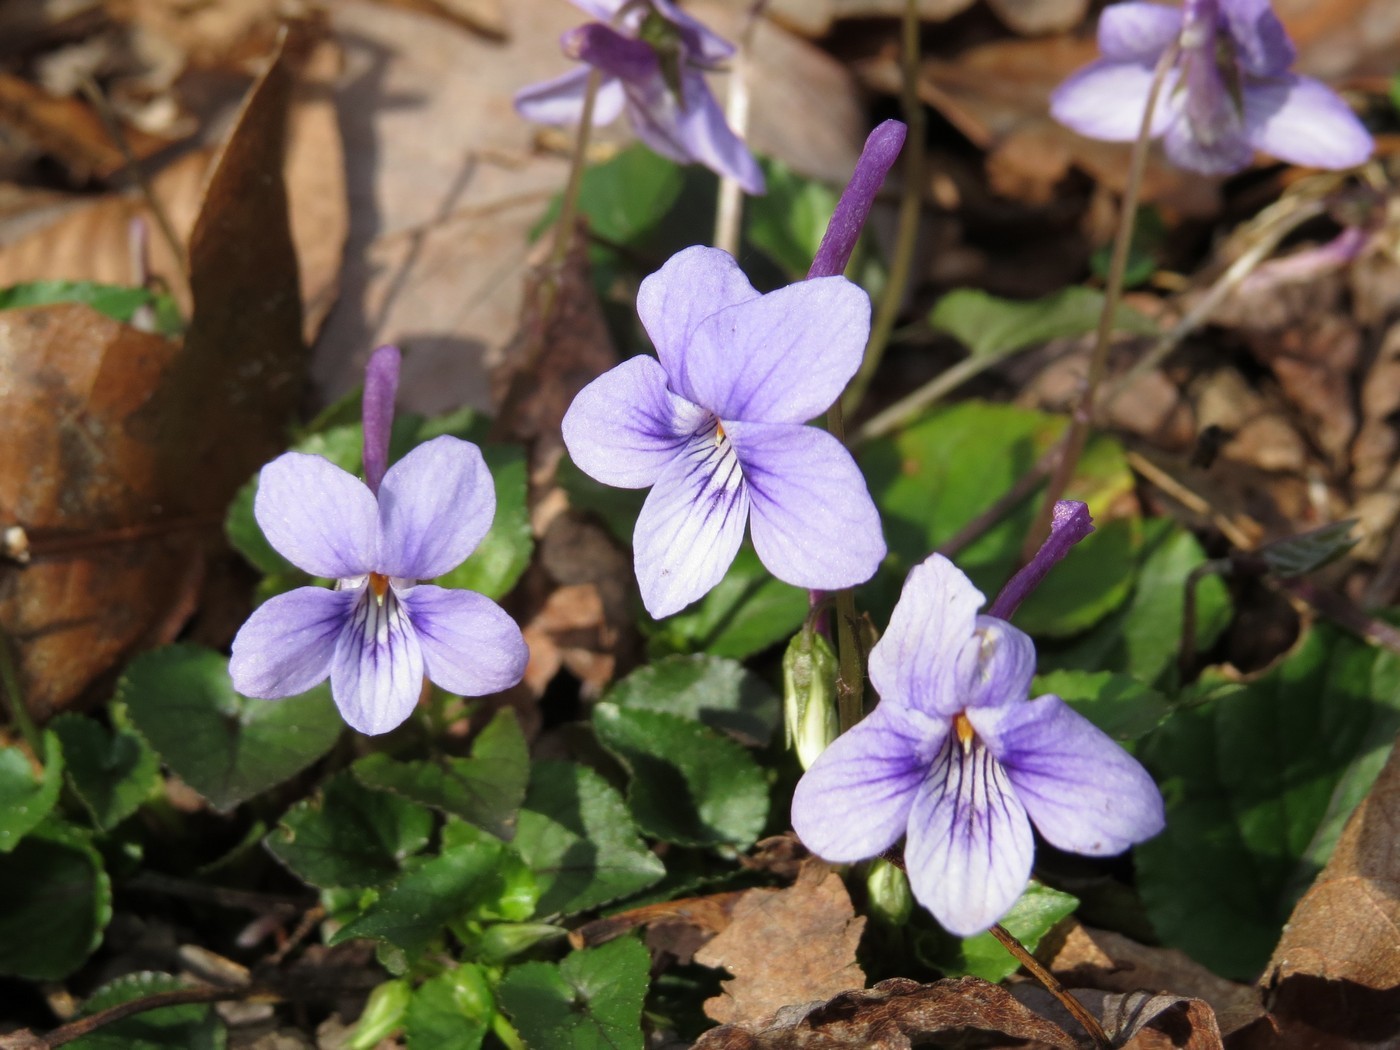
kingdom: Plantae
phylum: Tracheophyta
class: Magnoliopsida
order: Malpighiales
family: Violaceae
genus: Viola
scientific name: Viola rostrata
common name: Long-spur violet
